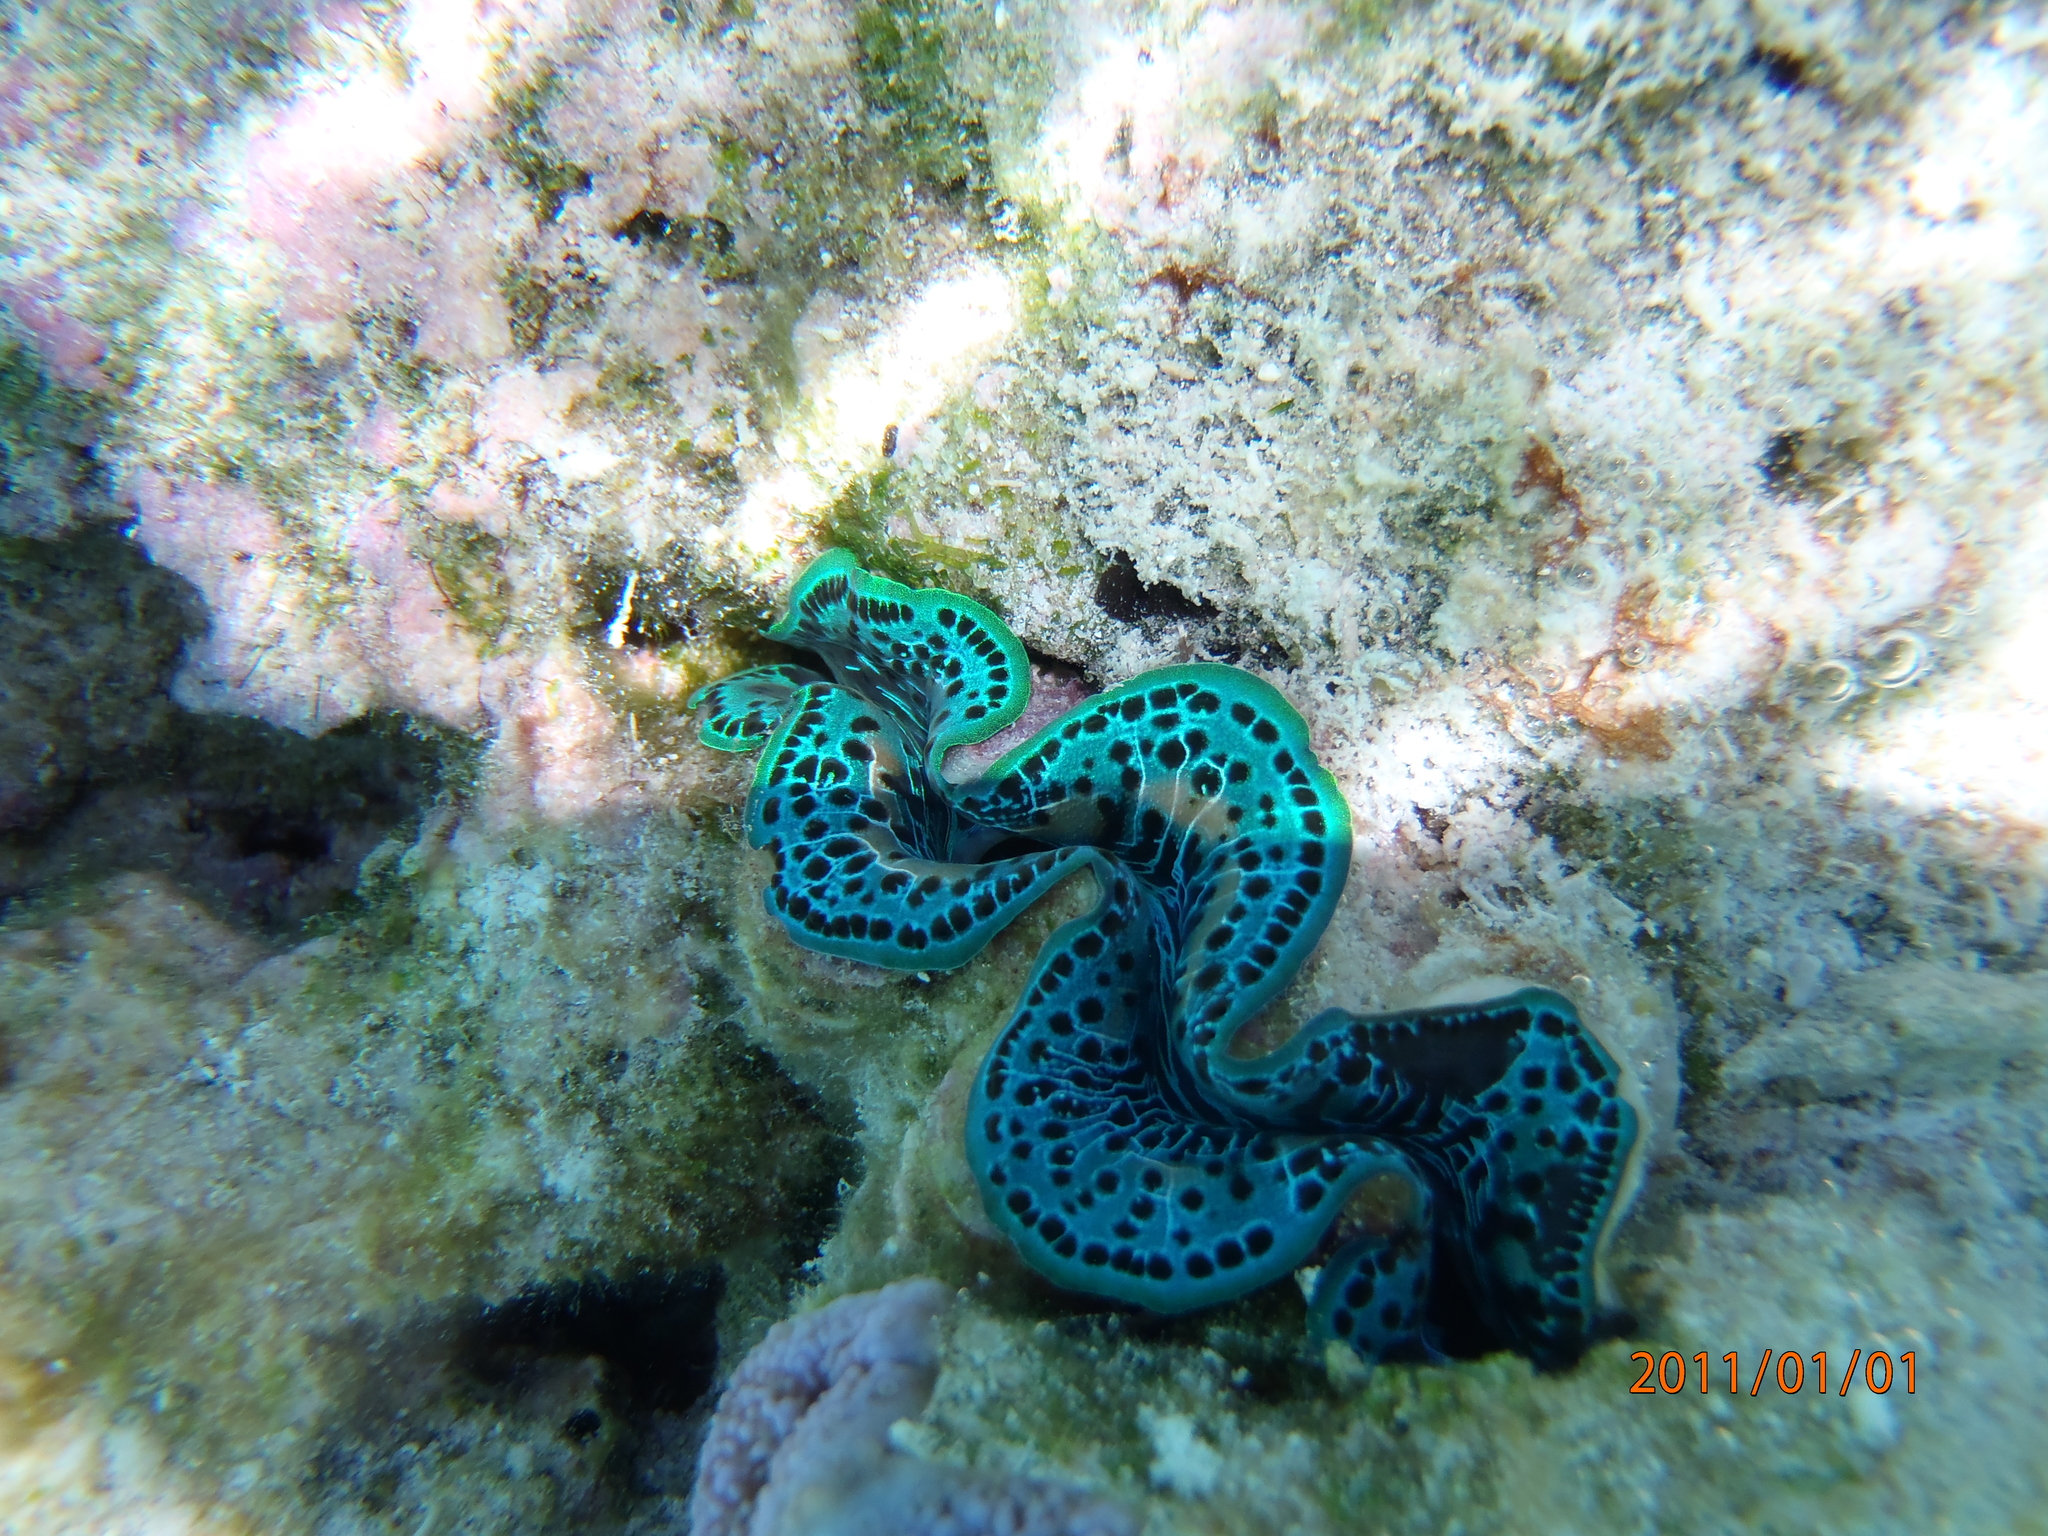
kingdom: Animalia
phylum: Mollusca
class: Bivalvia
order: Cardiida
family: Cardiidae
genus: Tridacna
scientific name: Tridacna maxima
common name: Small giant clam
